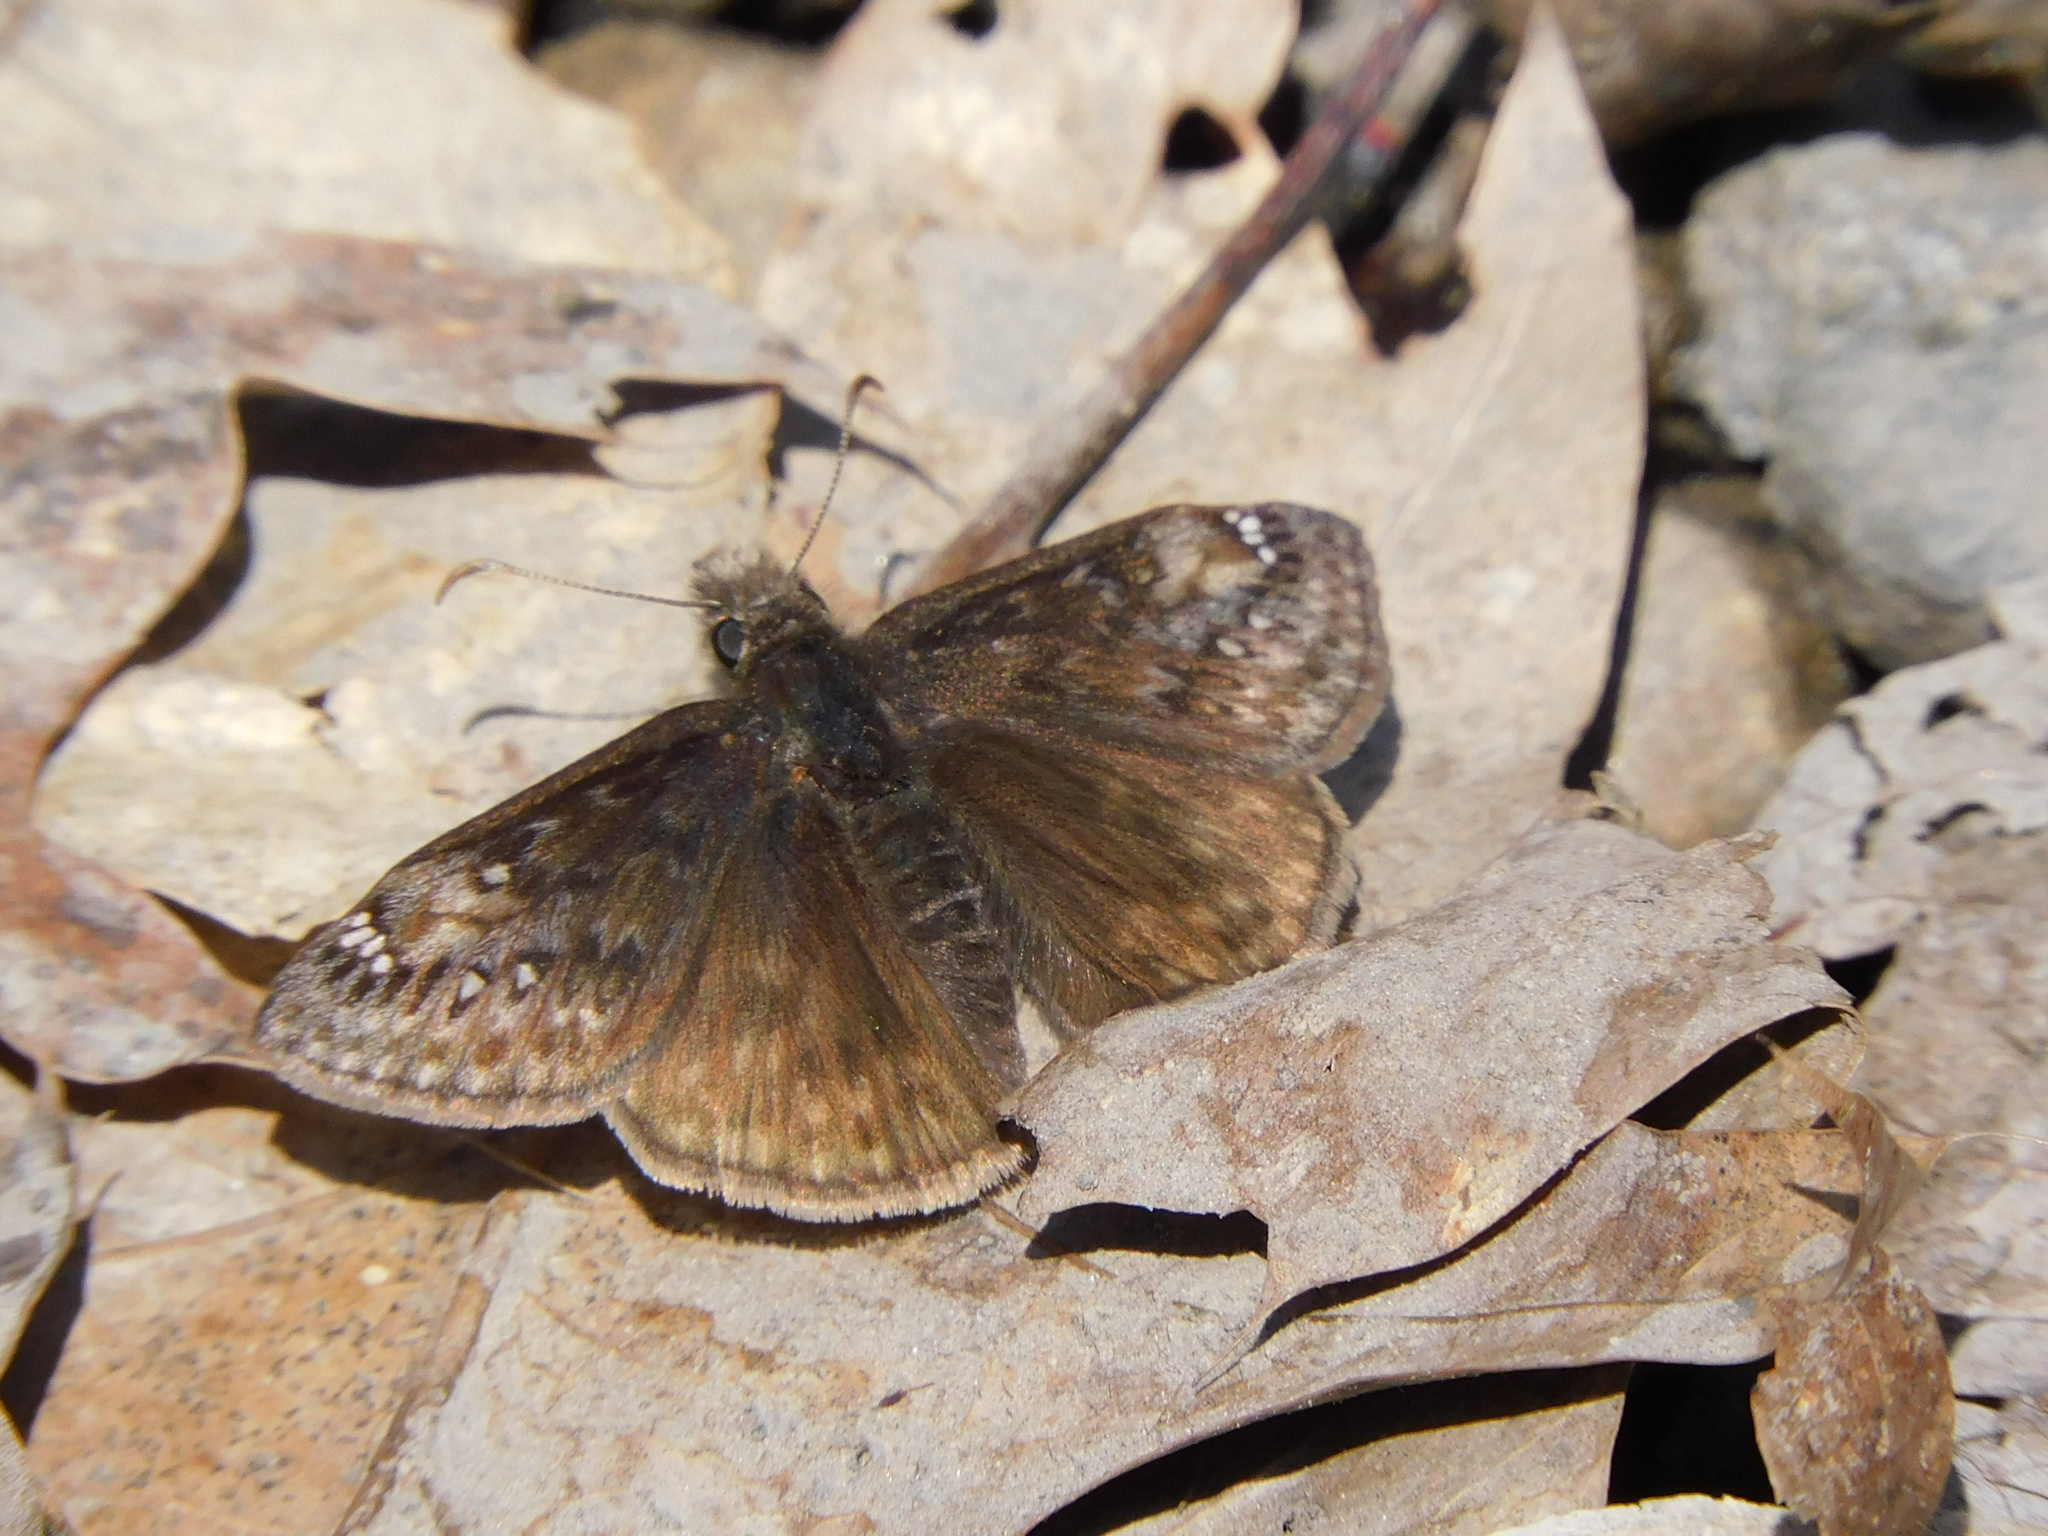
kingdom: Animalia
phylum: Arthropoda
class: Insecta
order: Lepidoptera
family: Hesperiidae
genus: Erynnis
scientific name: Erynnis juvenalis
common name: Juvenal's duskywing
